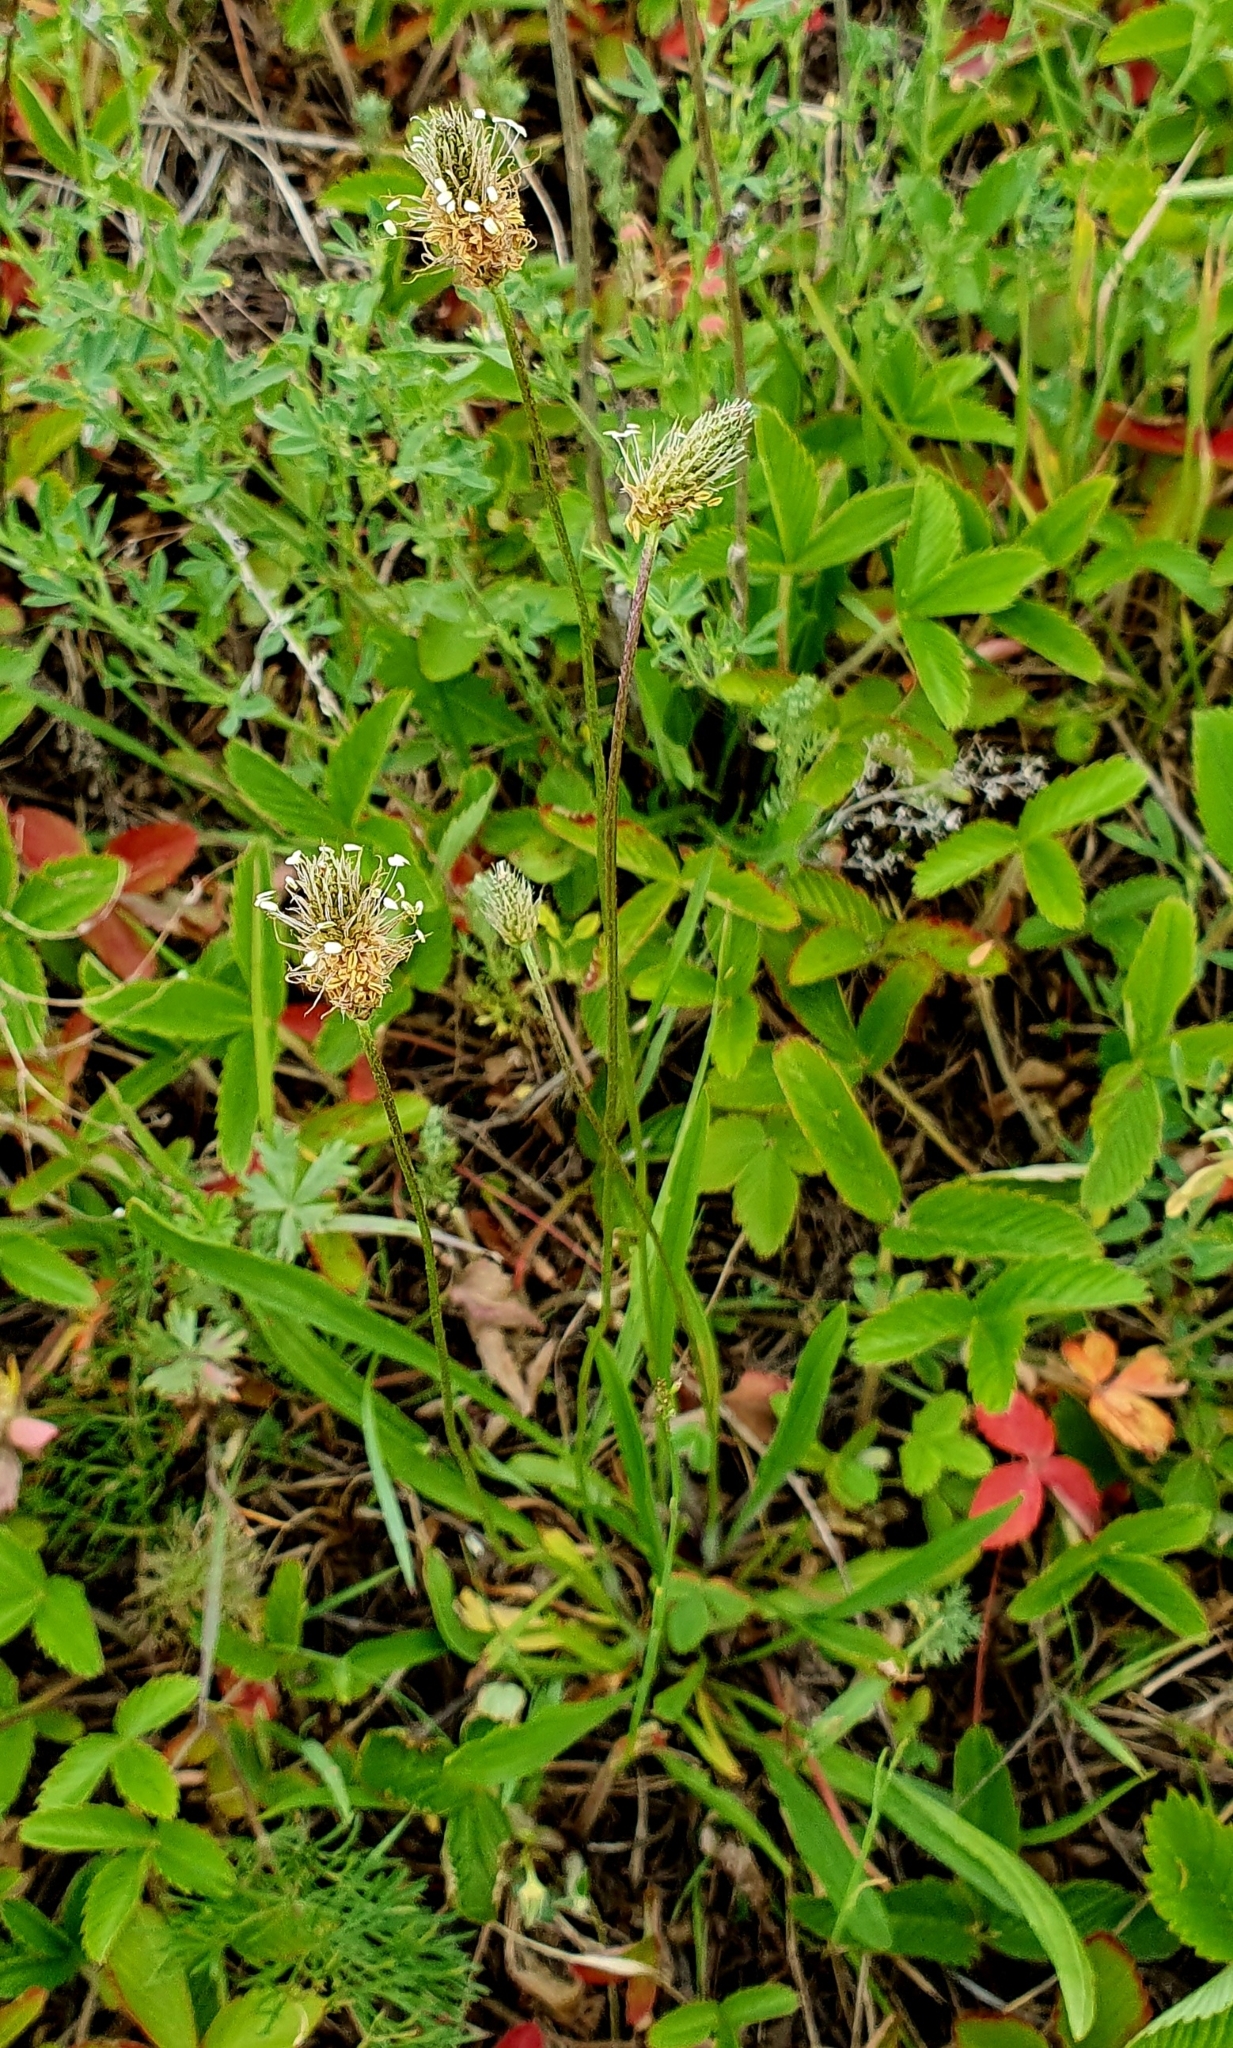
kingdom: Plantae
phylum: Tracheophyta
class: Magnoliopsida
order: Lamiales
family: Plantaginaceae
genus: Plantago
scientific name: Plantago lanceolata
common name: Ribwort plantain
